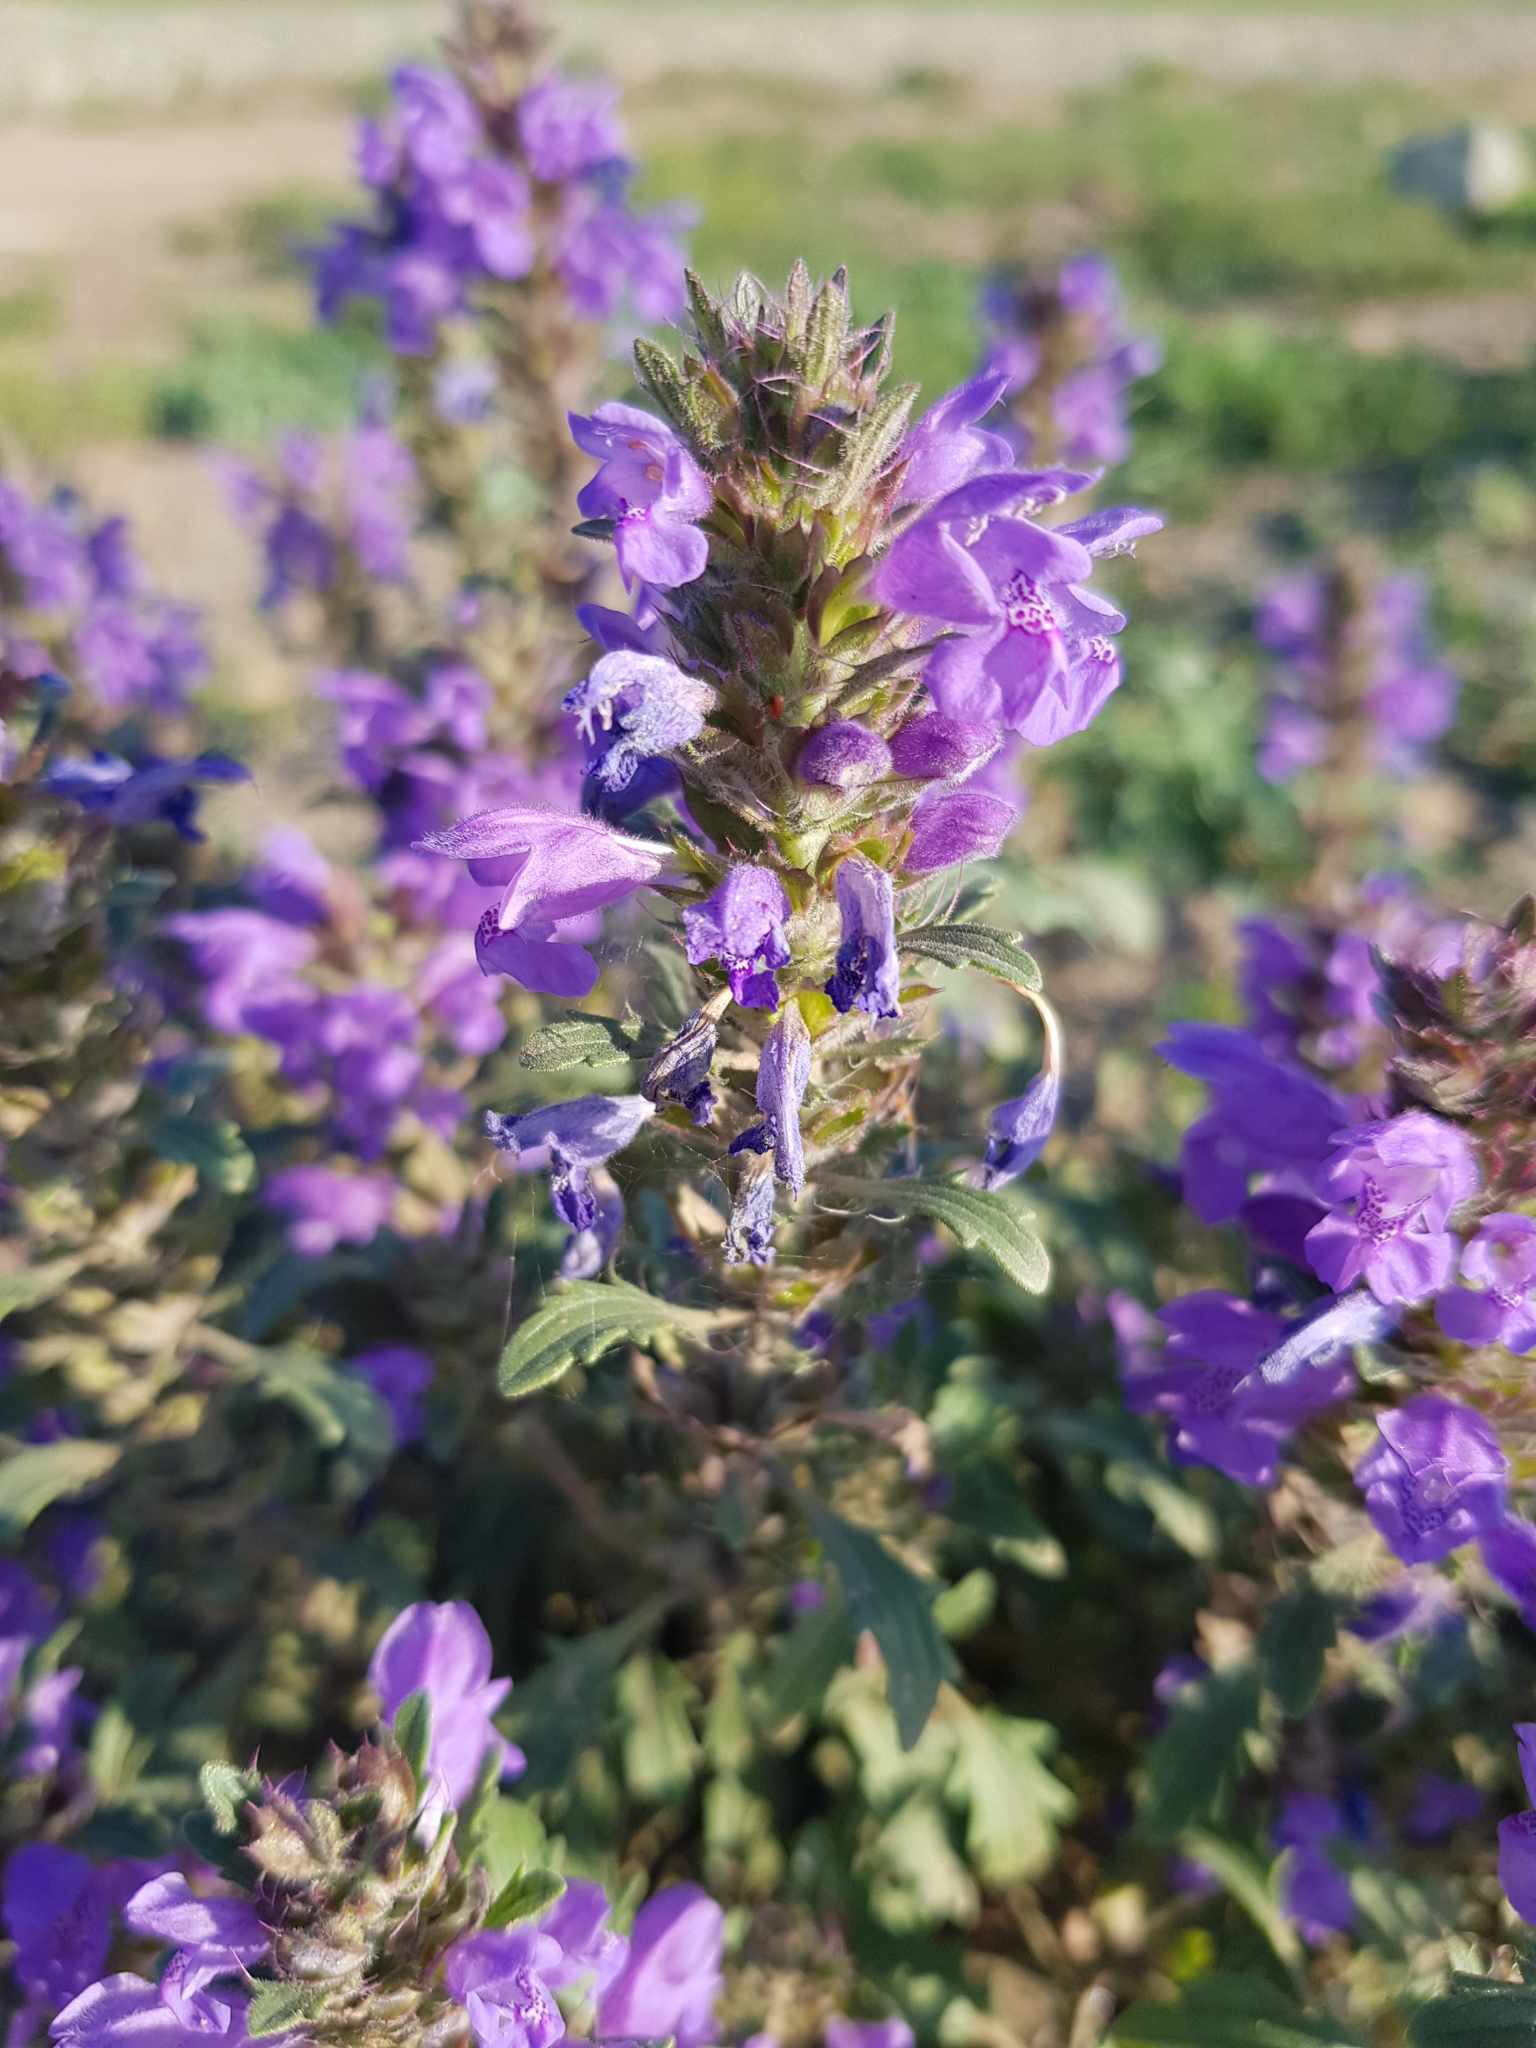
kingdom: Plantae
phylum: Tracheophyta
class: Magnoliopsida
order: Lamiales
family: Lamiaceae
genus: Dracocephalum
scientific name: Dracocephalum foetidum
